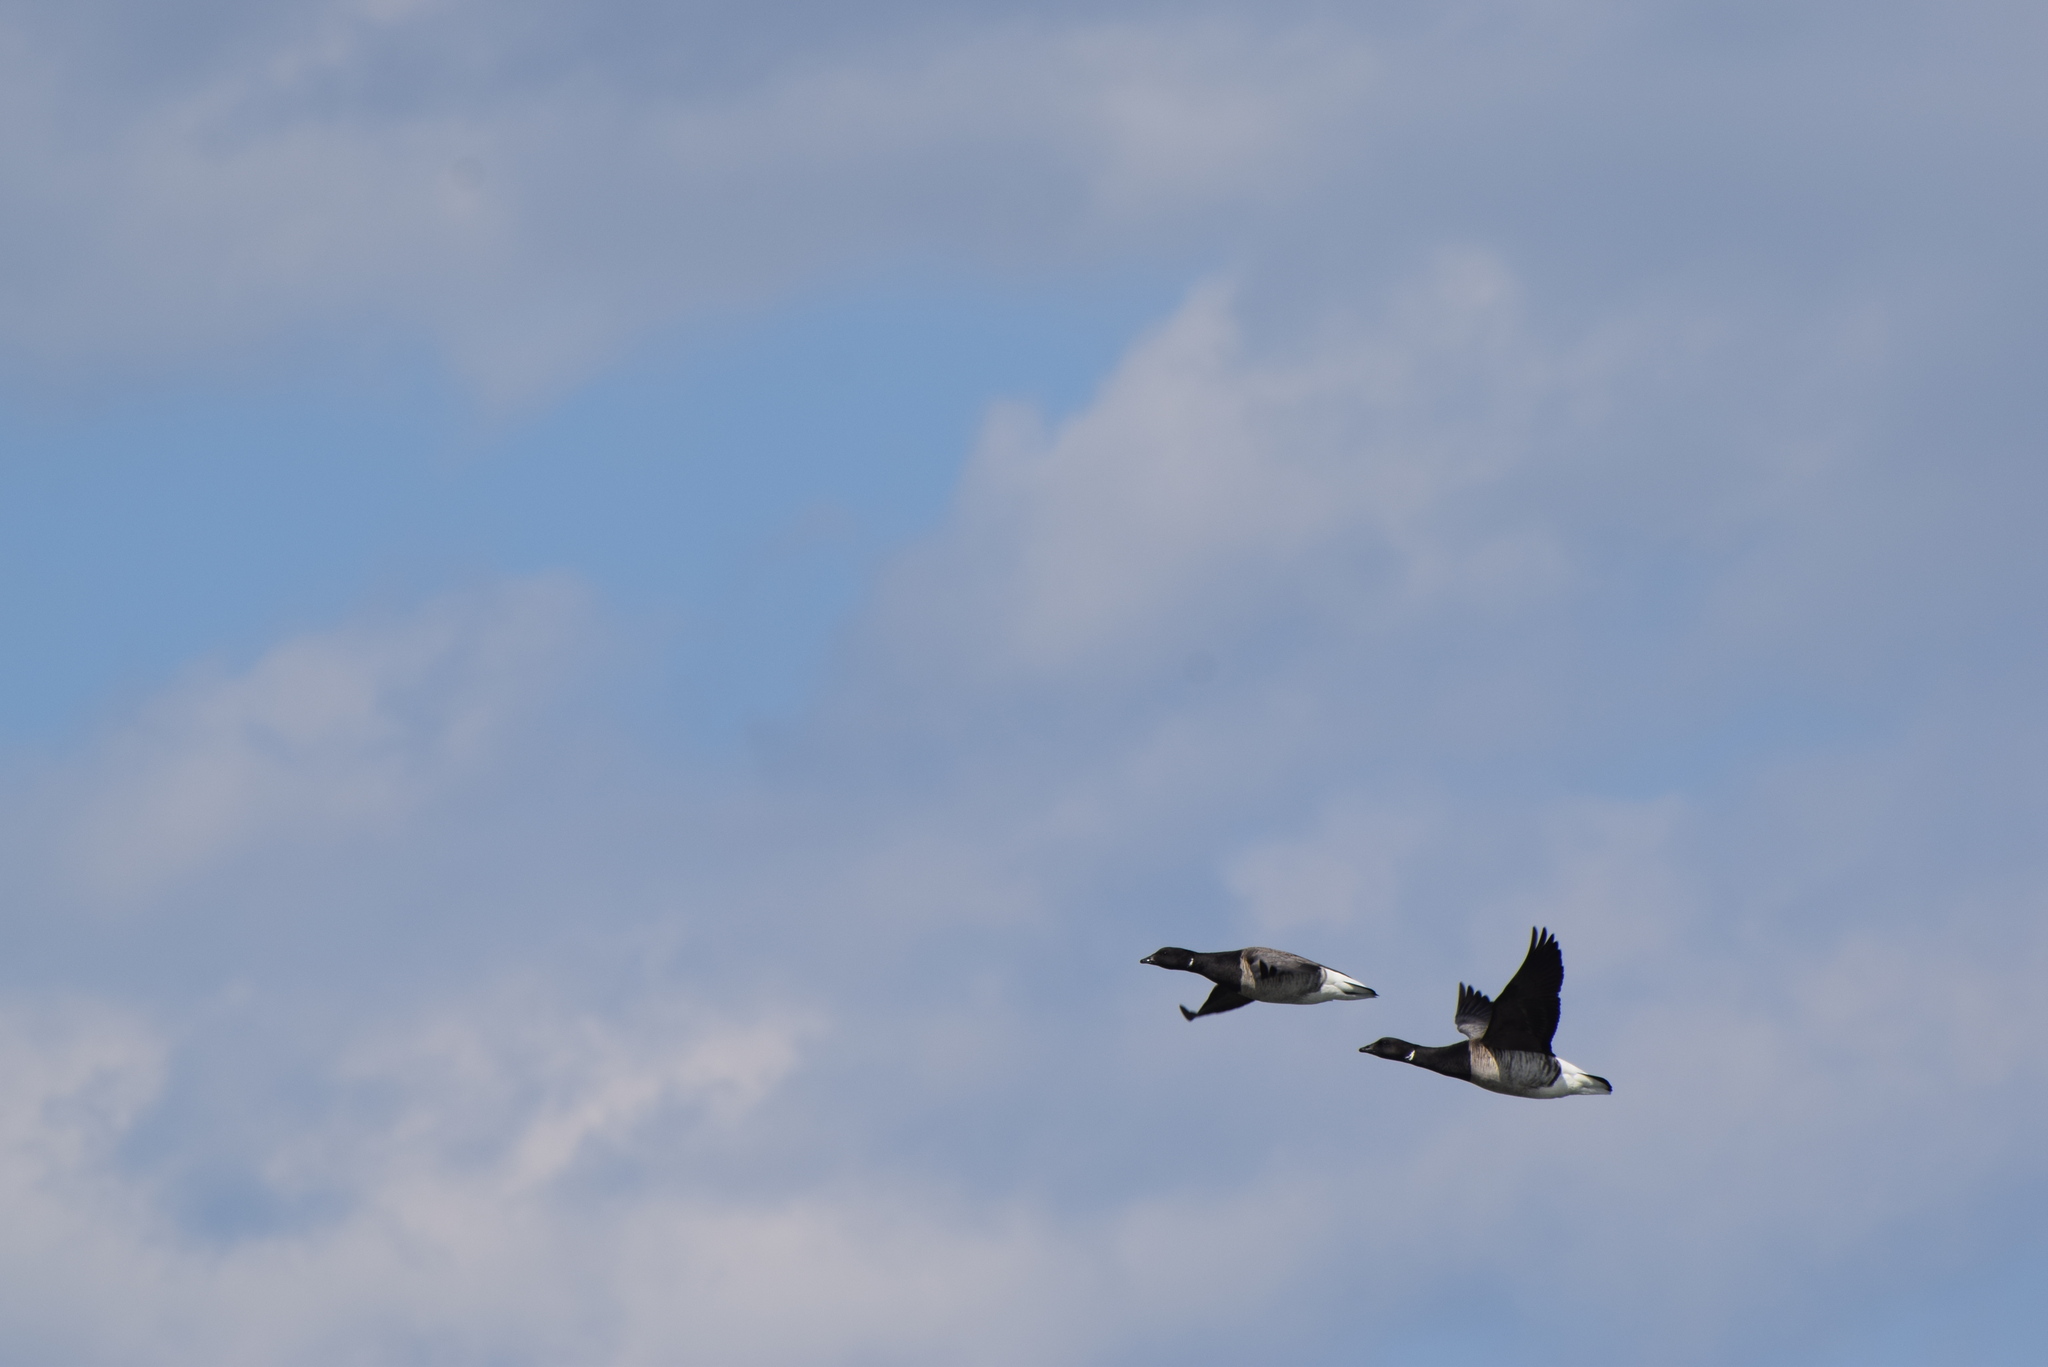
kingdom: Animalia
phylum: Chordata
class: Aves
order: Anseriformes
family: Anatidae
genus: Branta
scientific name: Branta bernicla
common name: Brant goose
